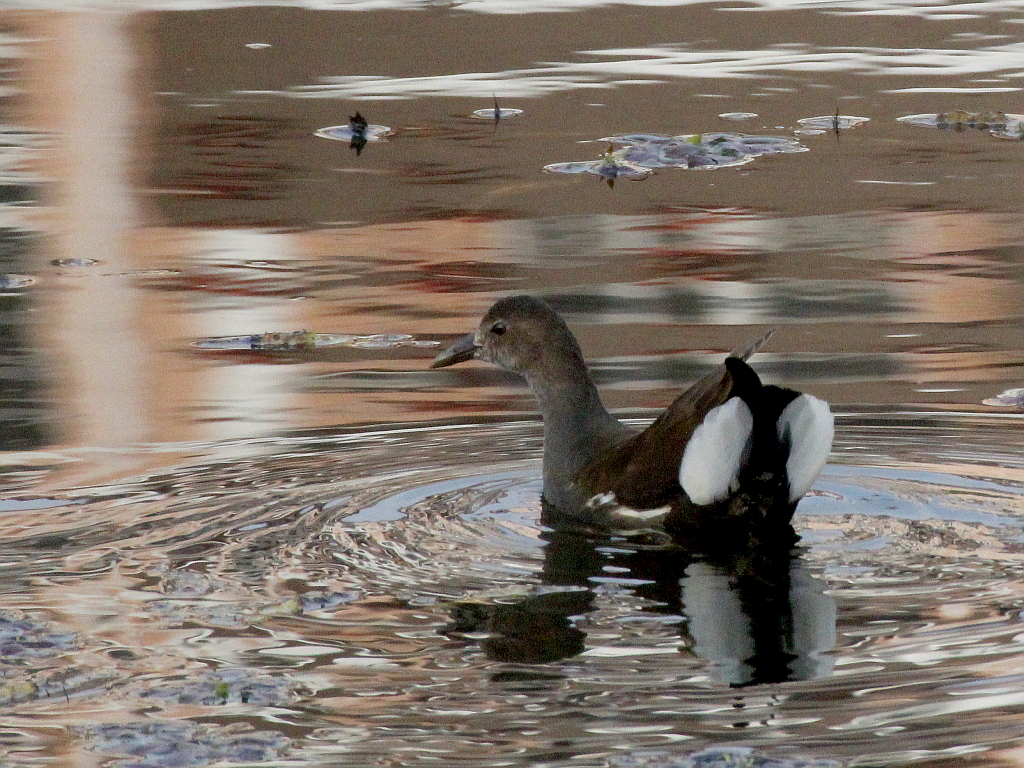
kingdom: Animalia
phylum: Chordata
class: Aves
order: Gruiformes
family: Rallidae
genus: Gallinula
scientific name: Gallinula chloropus
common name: Common moorhen
